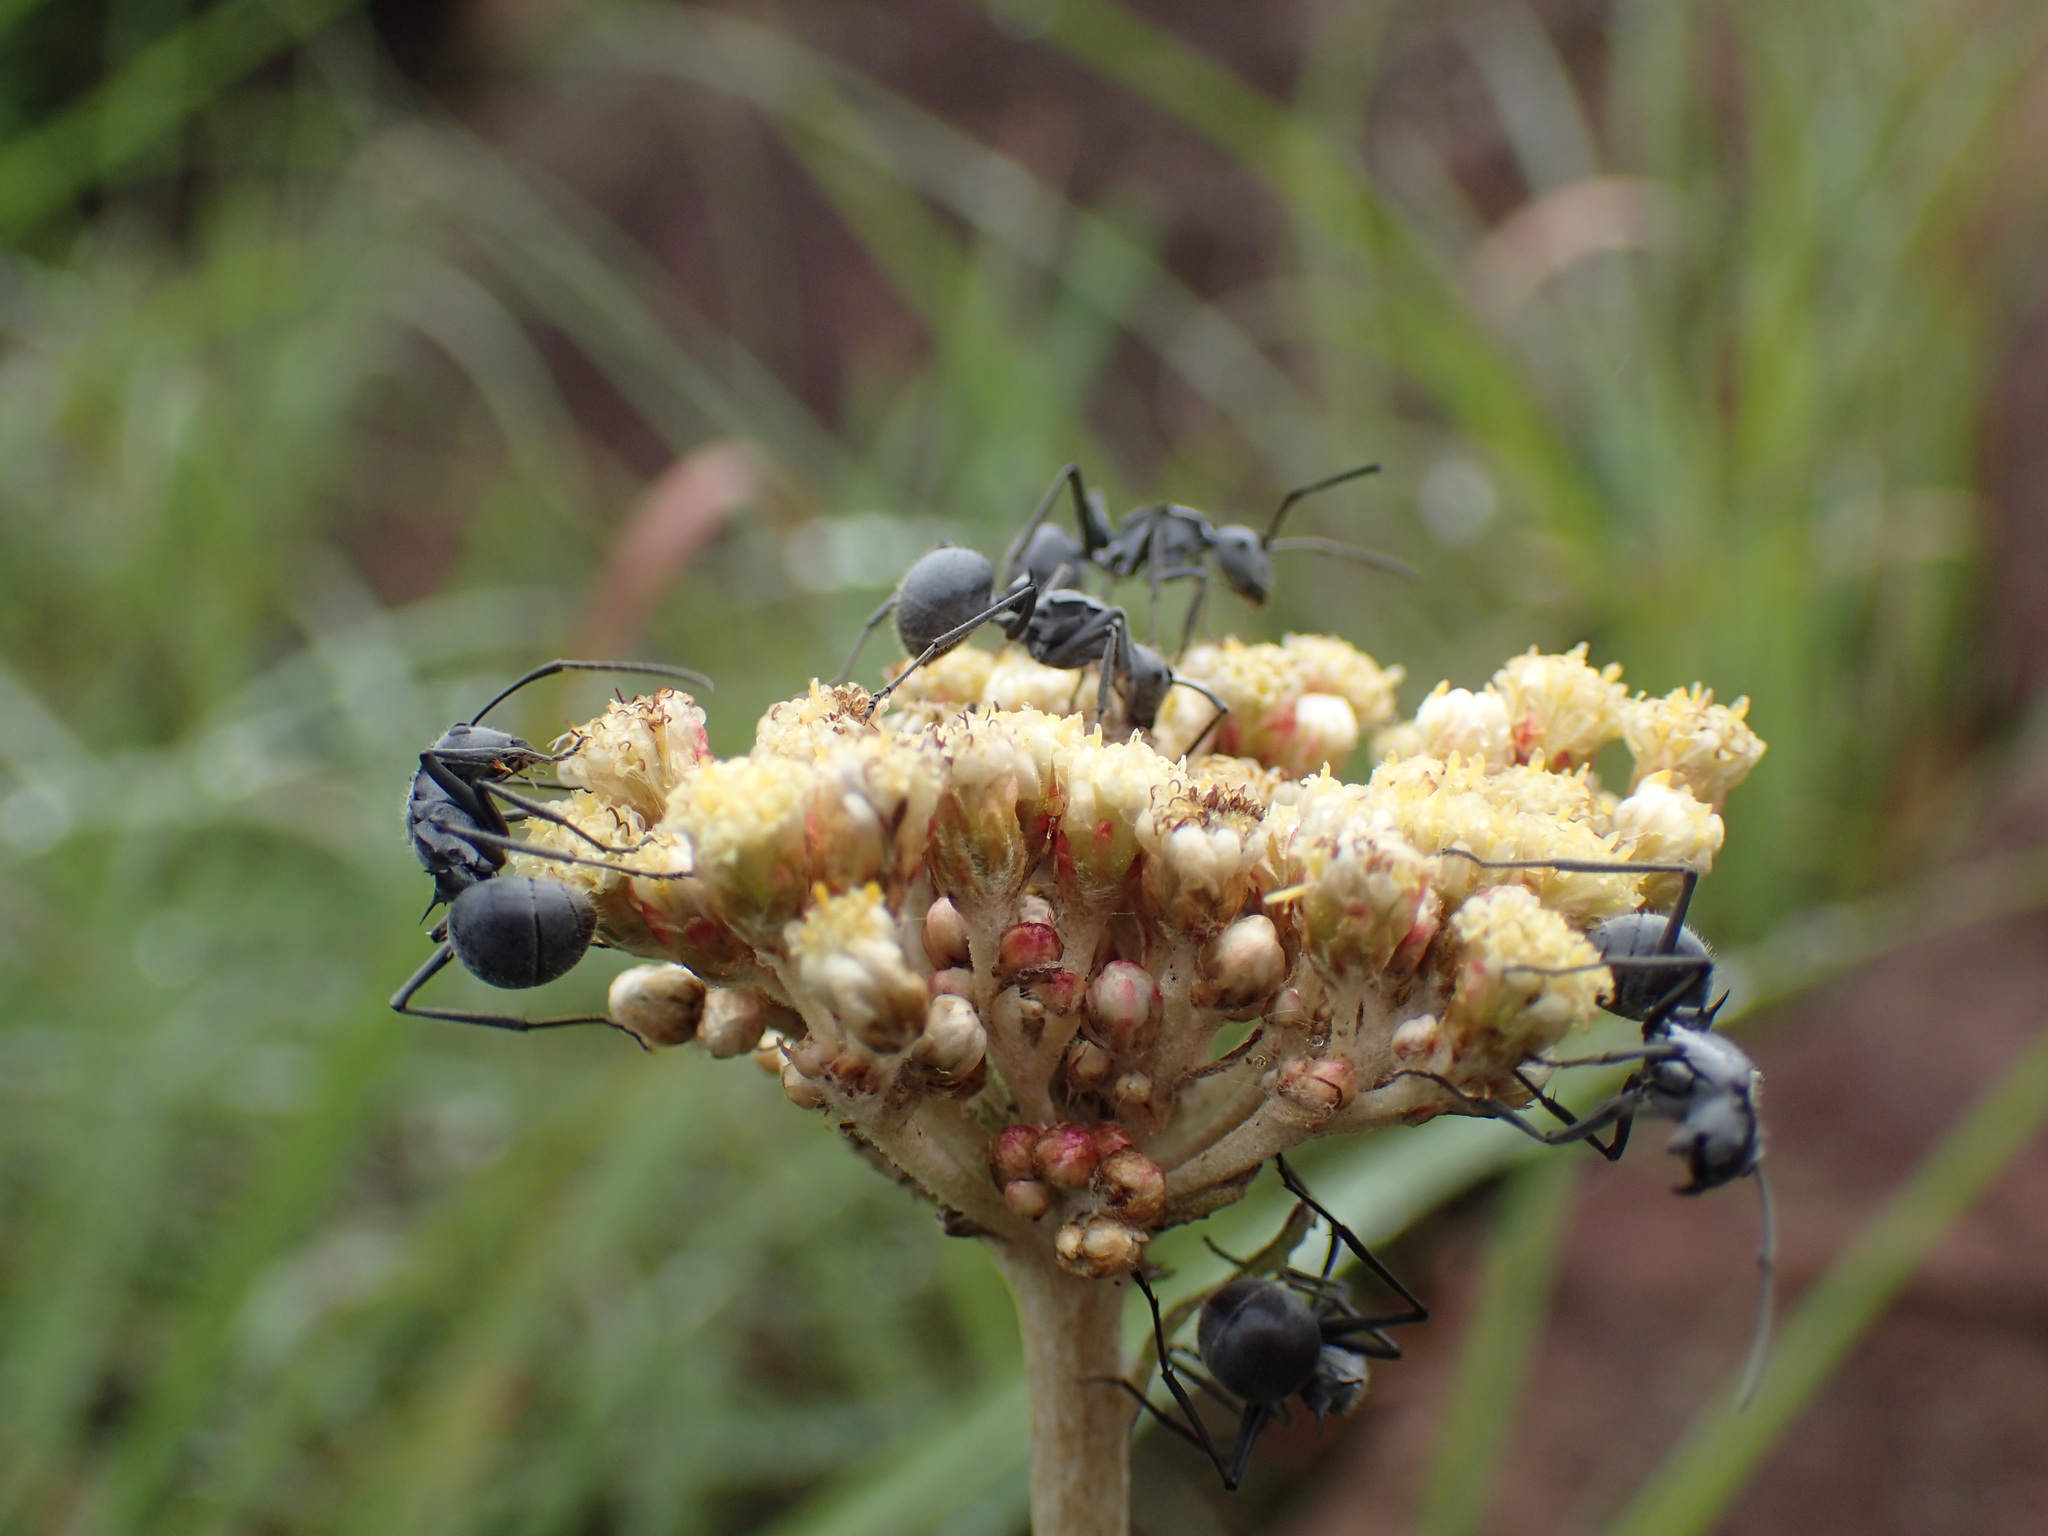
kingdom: Animalia
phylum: Arthropoda
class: Insecta
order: Hymenoptera
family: Formicidae
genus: Polyrhachis
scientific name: Polyrhachis schistacea
